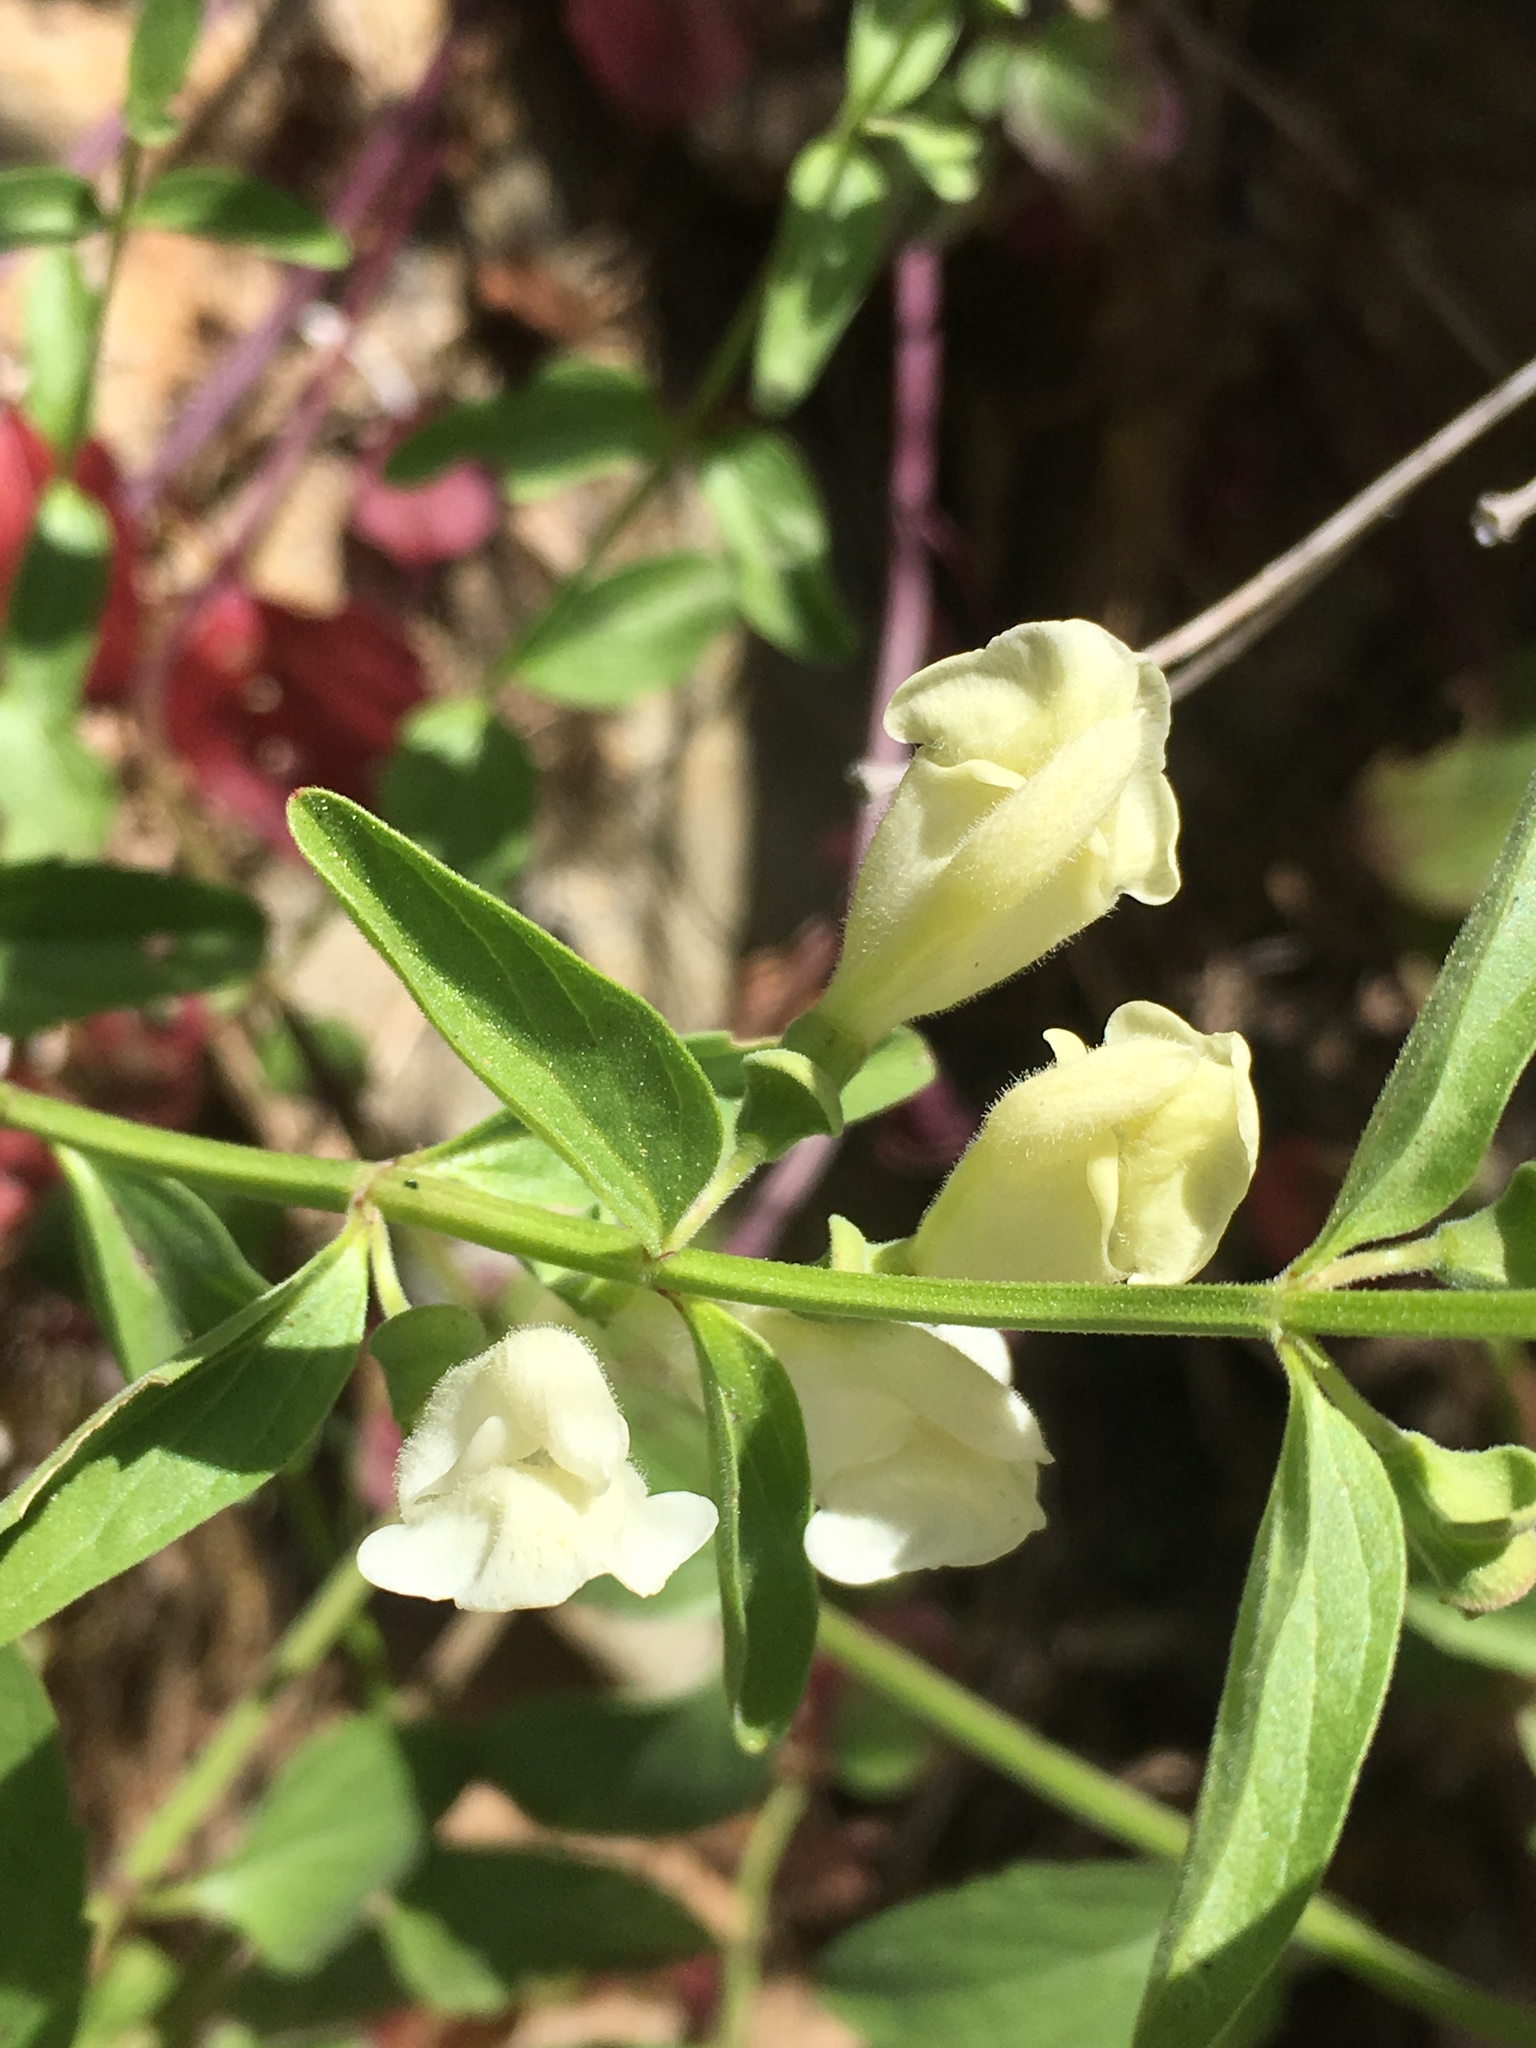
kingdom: Plantae
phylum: Tracheophyta
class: Magnoliopsida
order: Lamiales
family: Lamiaceae
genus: Scutellaria
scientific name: Scutellaria californica
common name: California scullcap
